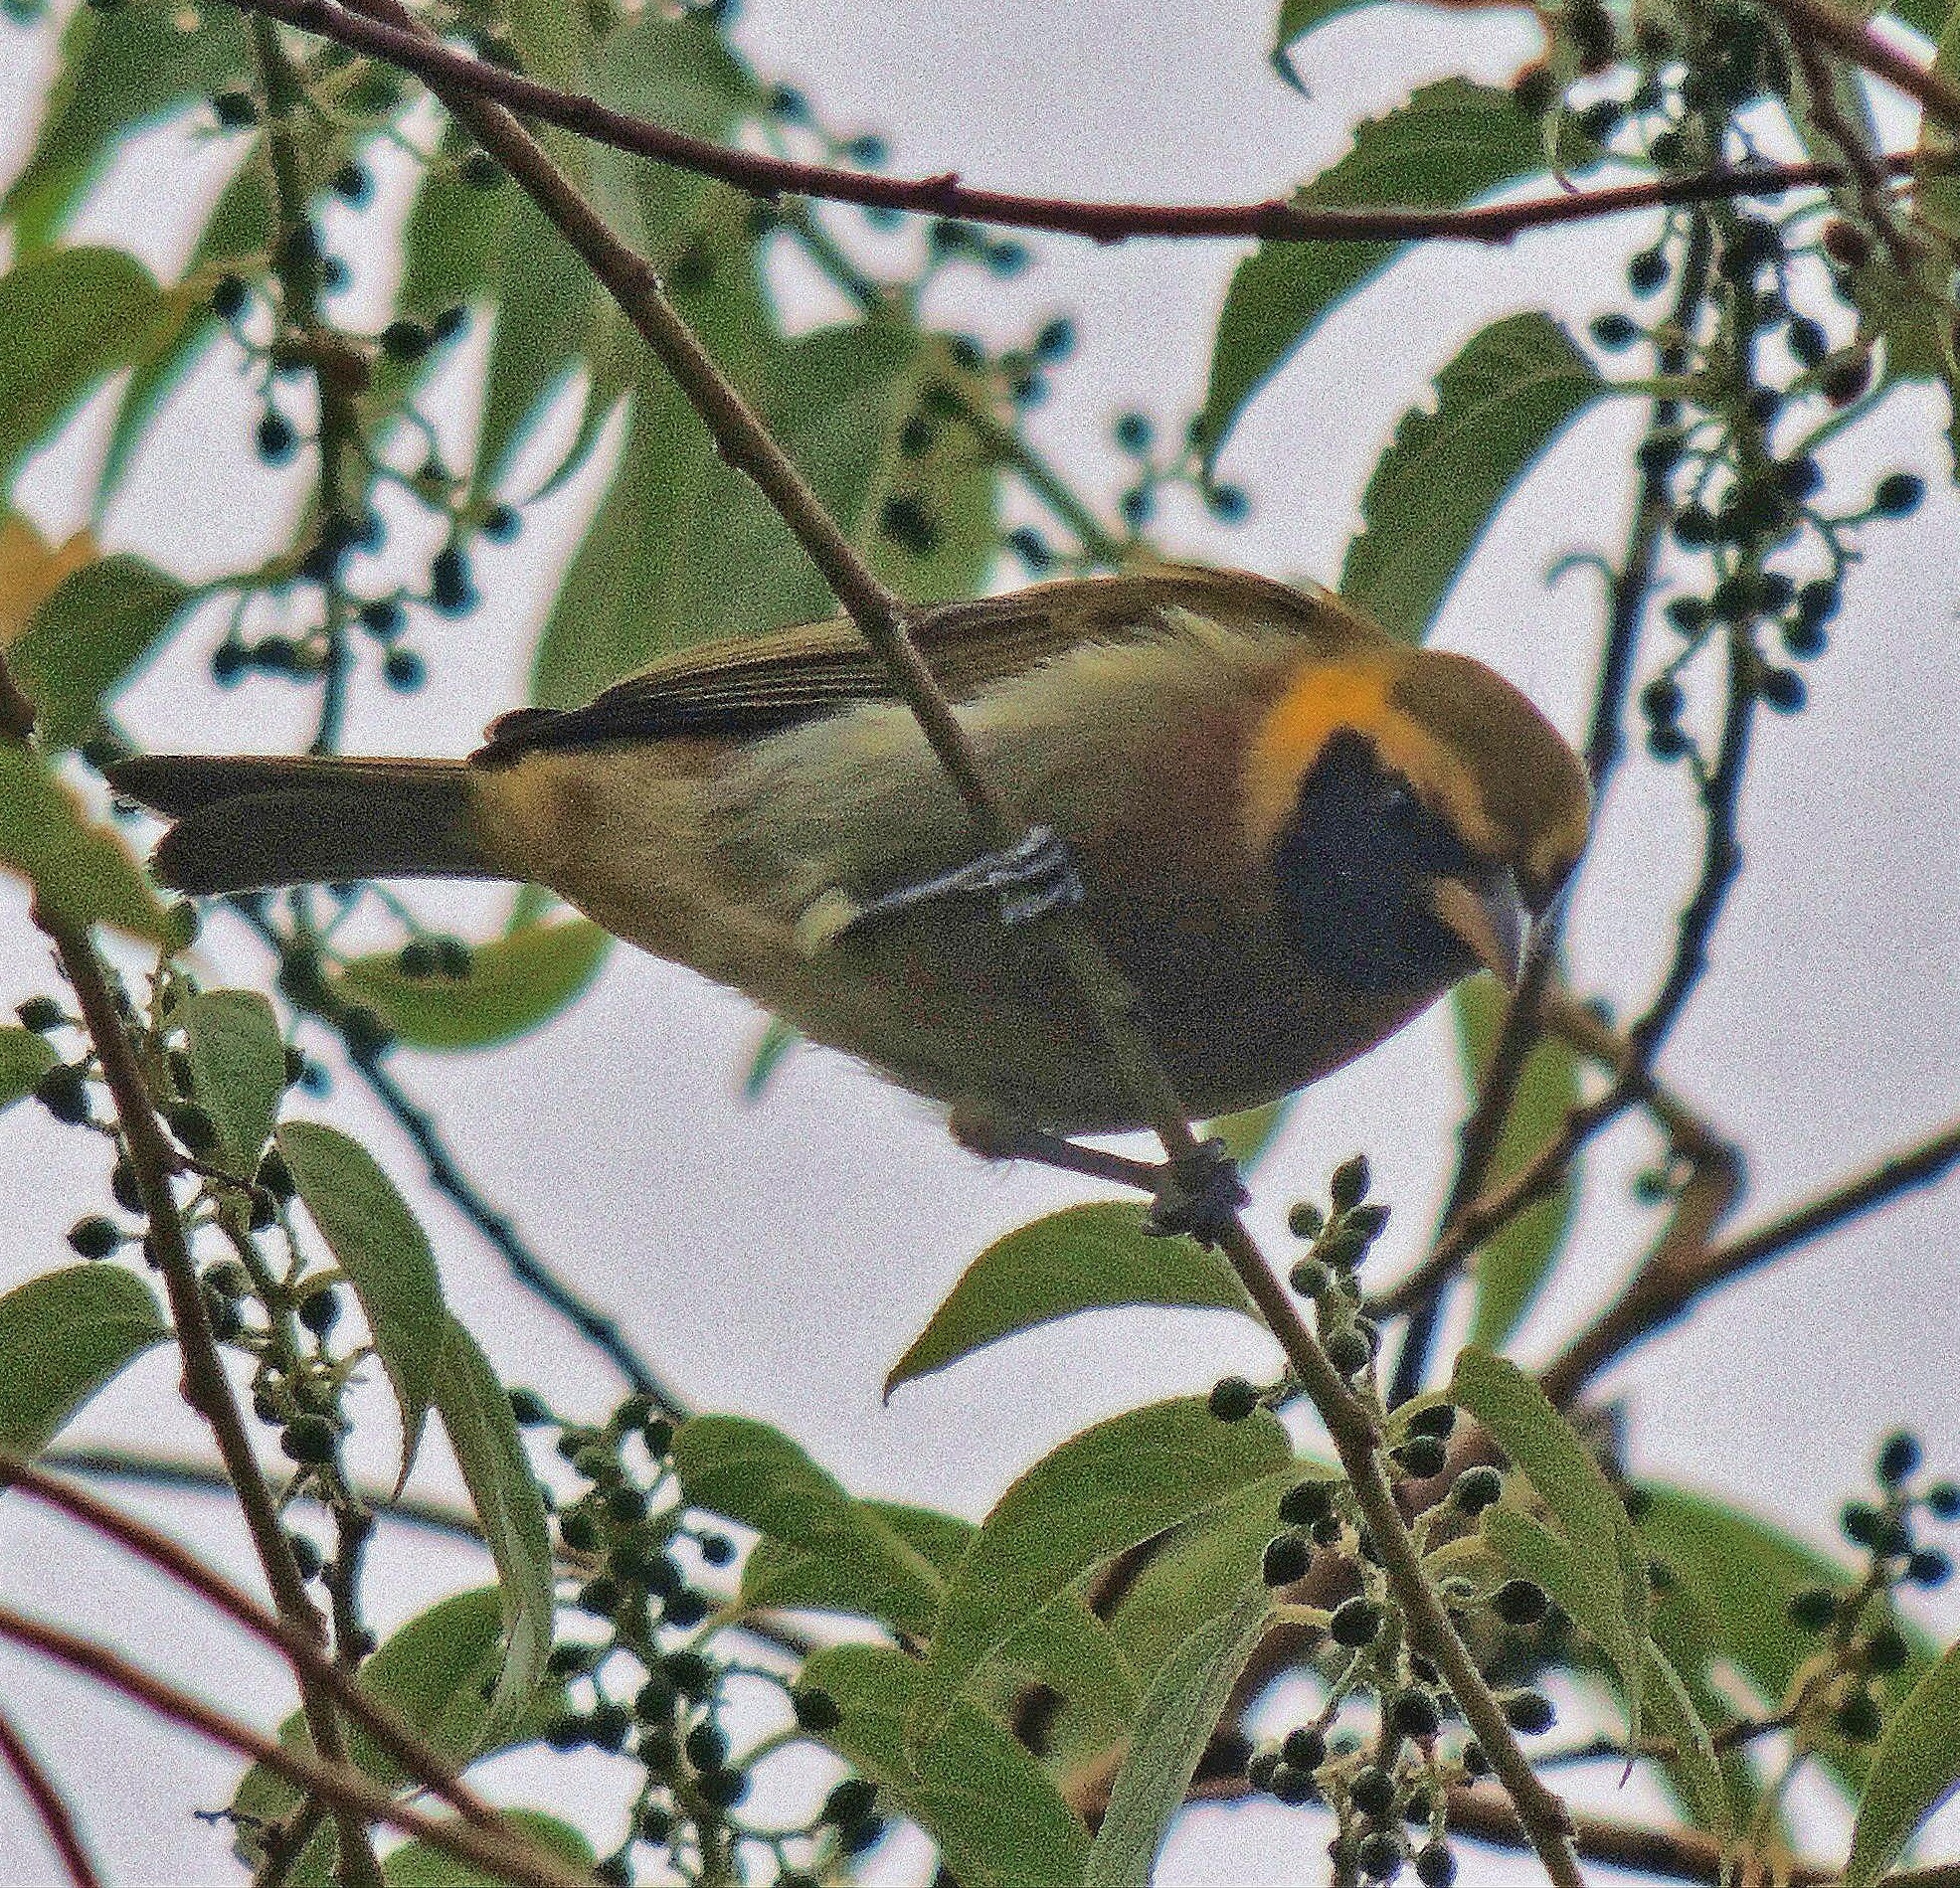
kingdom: Animalia
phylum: Chordata
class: Aves
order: Passeriformes
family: Thraupidae
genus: Hemithraupis
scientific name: Hemithraupis guira
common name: Guira tanager
